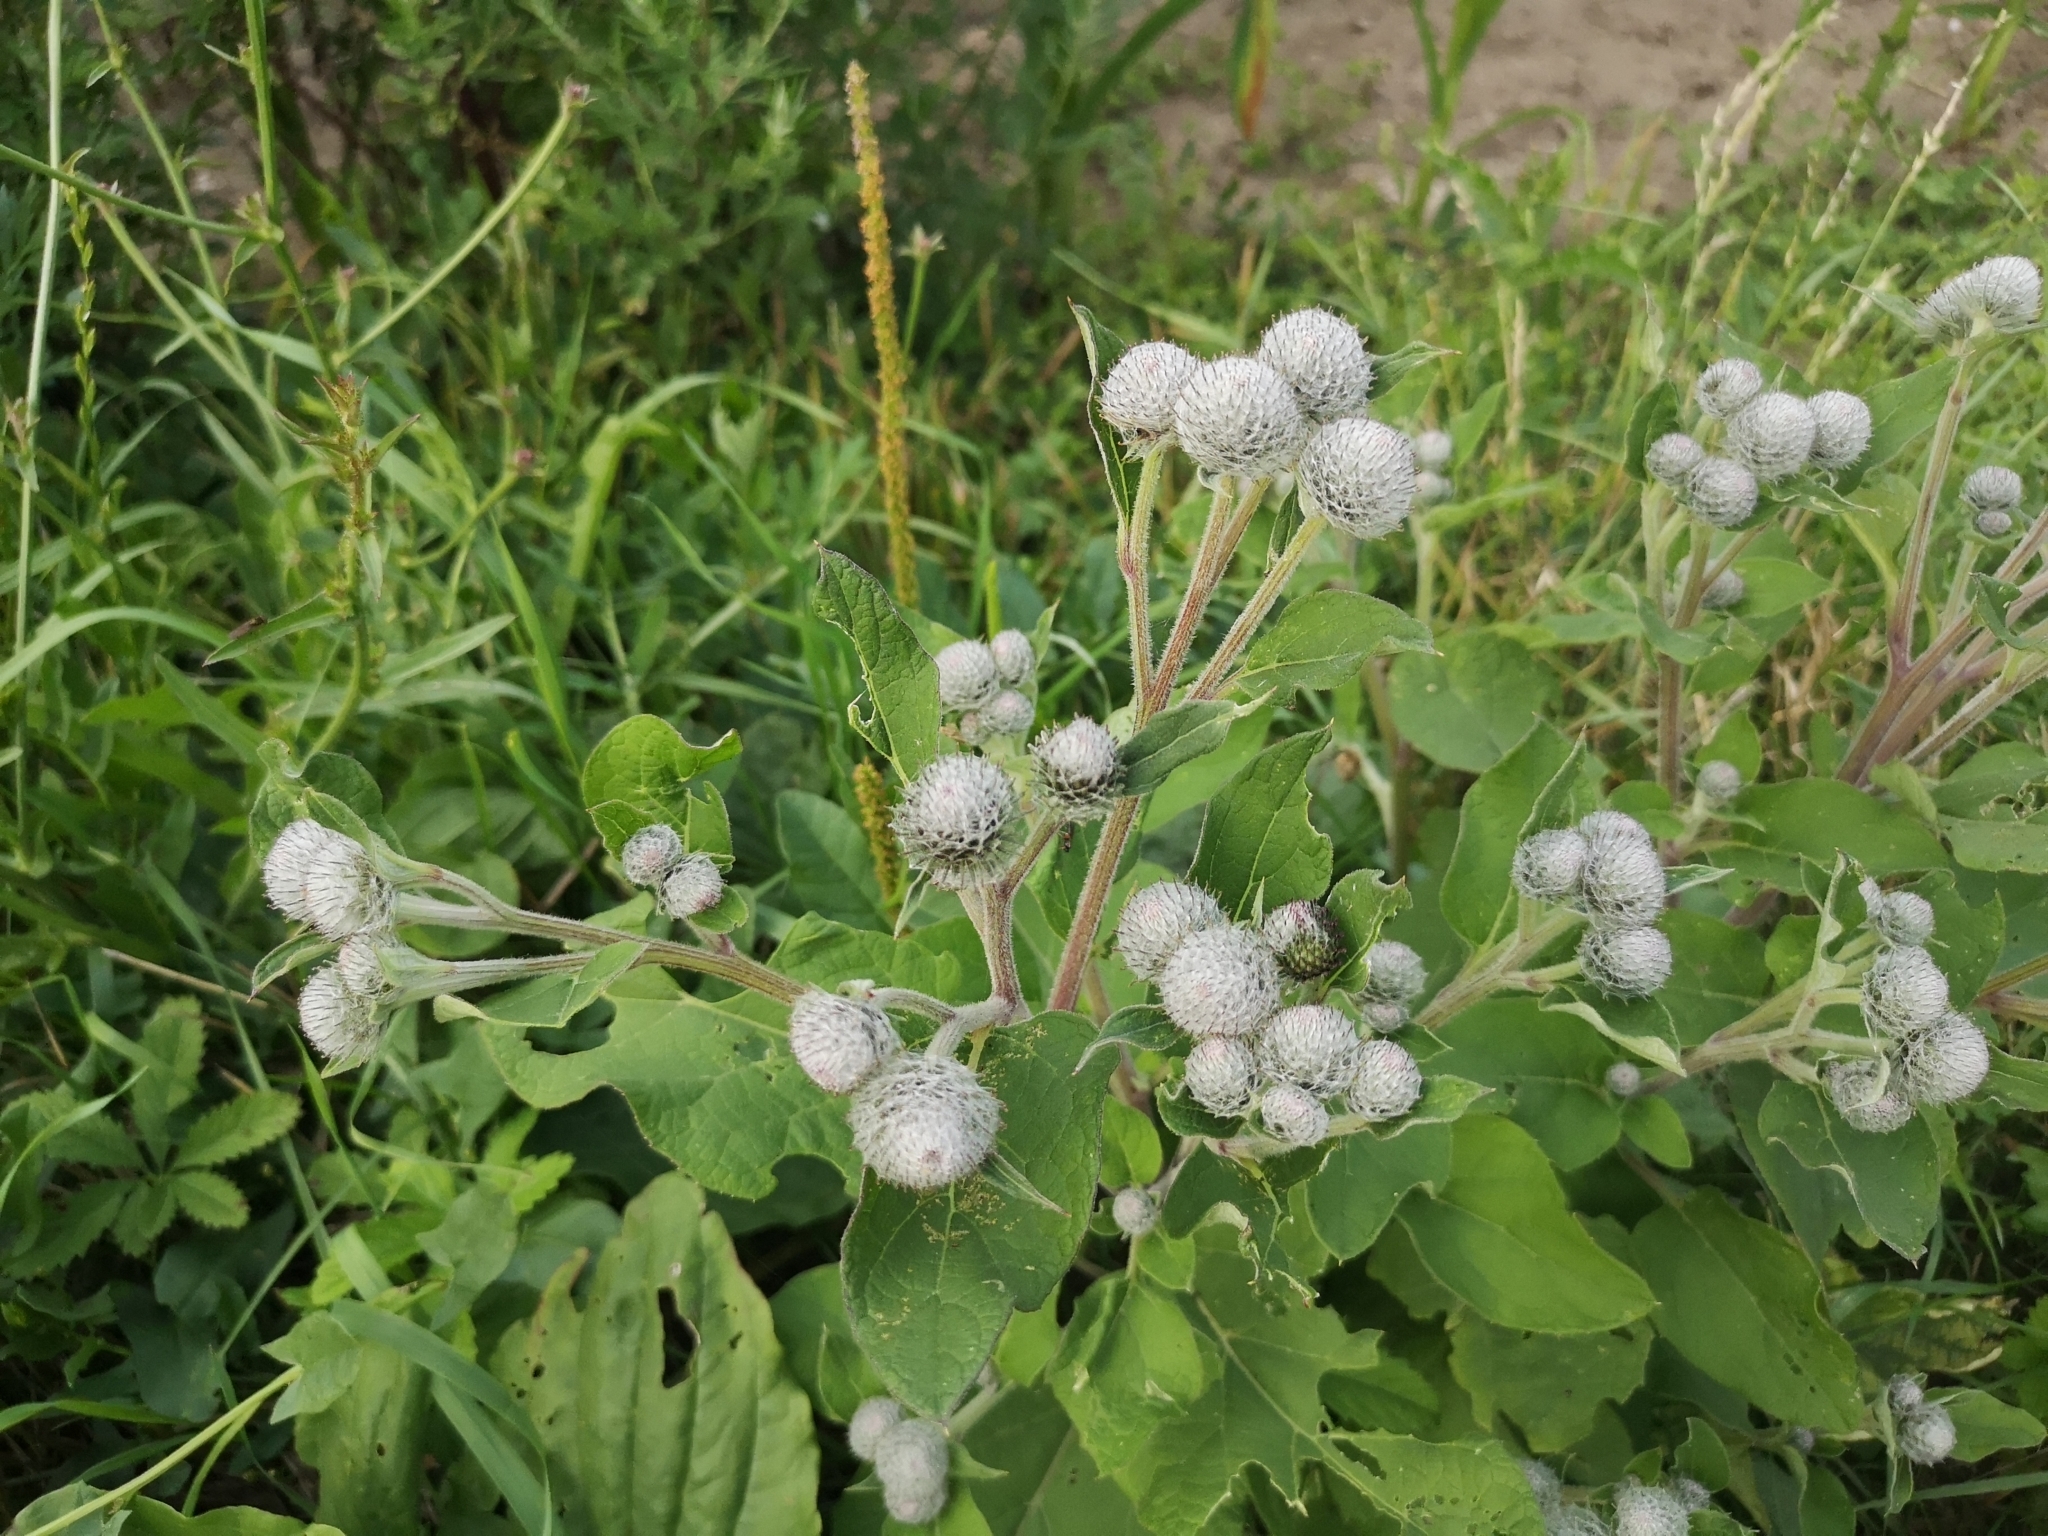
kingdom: Plantae
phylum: Tracheophyta
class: Magnoliopsida
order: Asterales
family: Asteraceae
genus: Arctium
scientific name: Arctium tomentosum
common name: Woolly burdock
